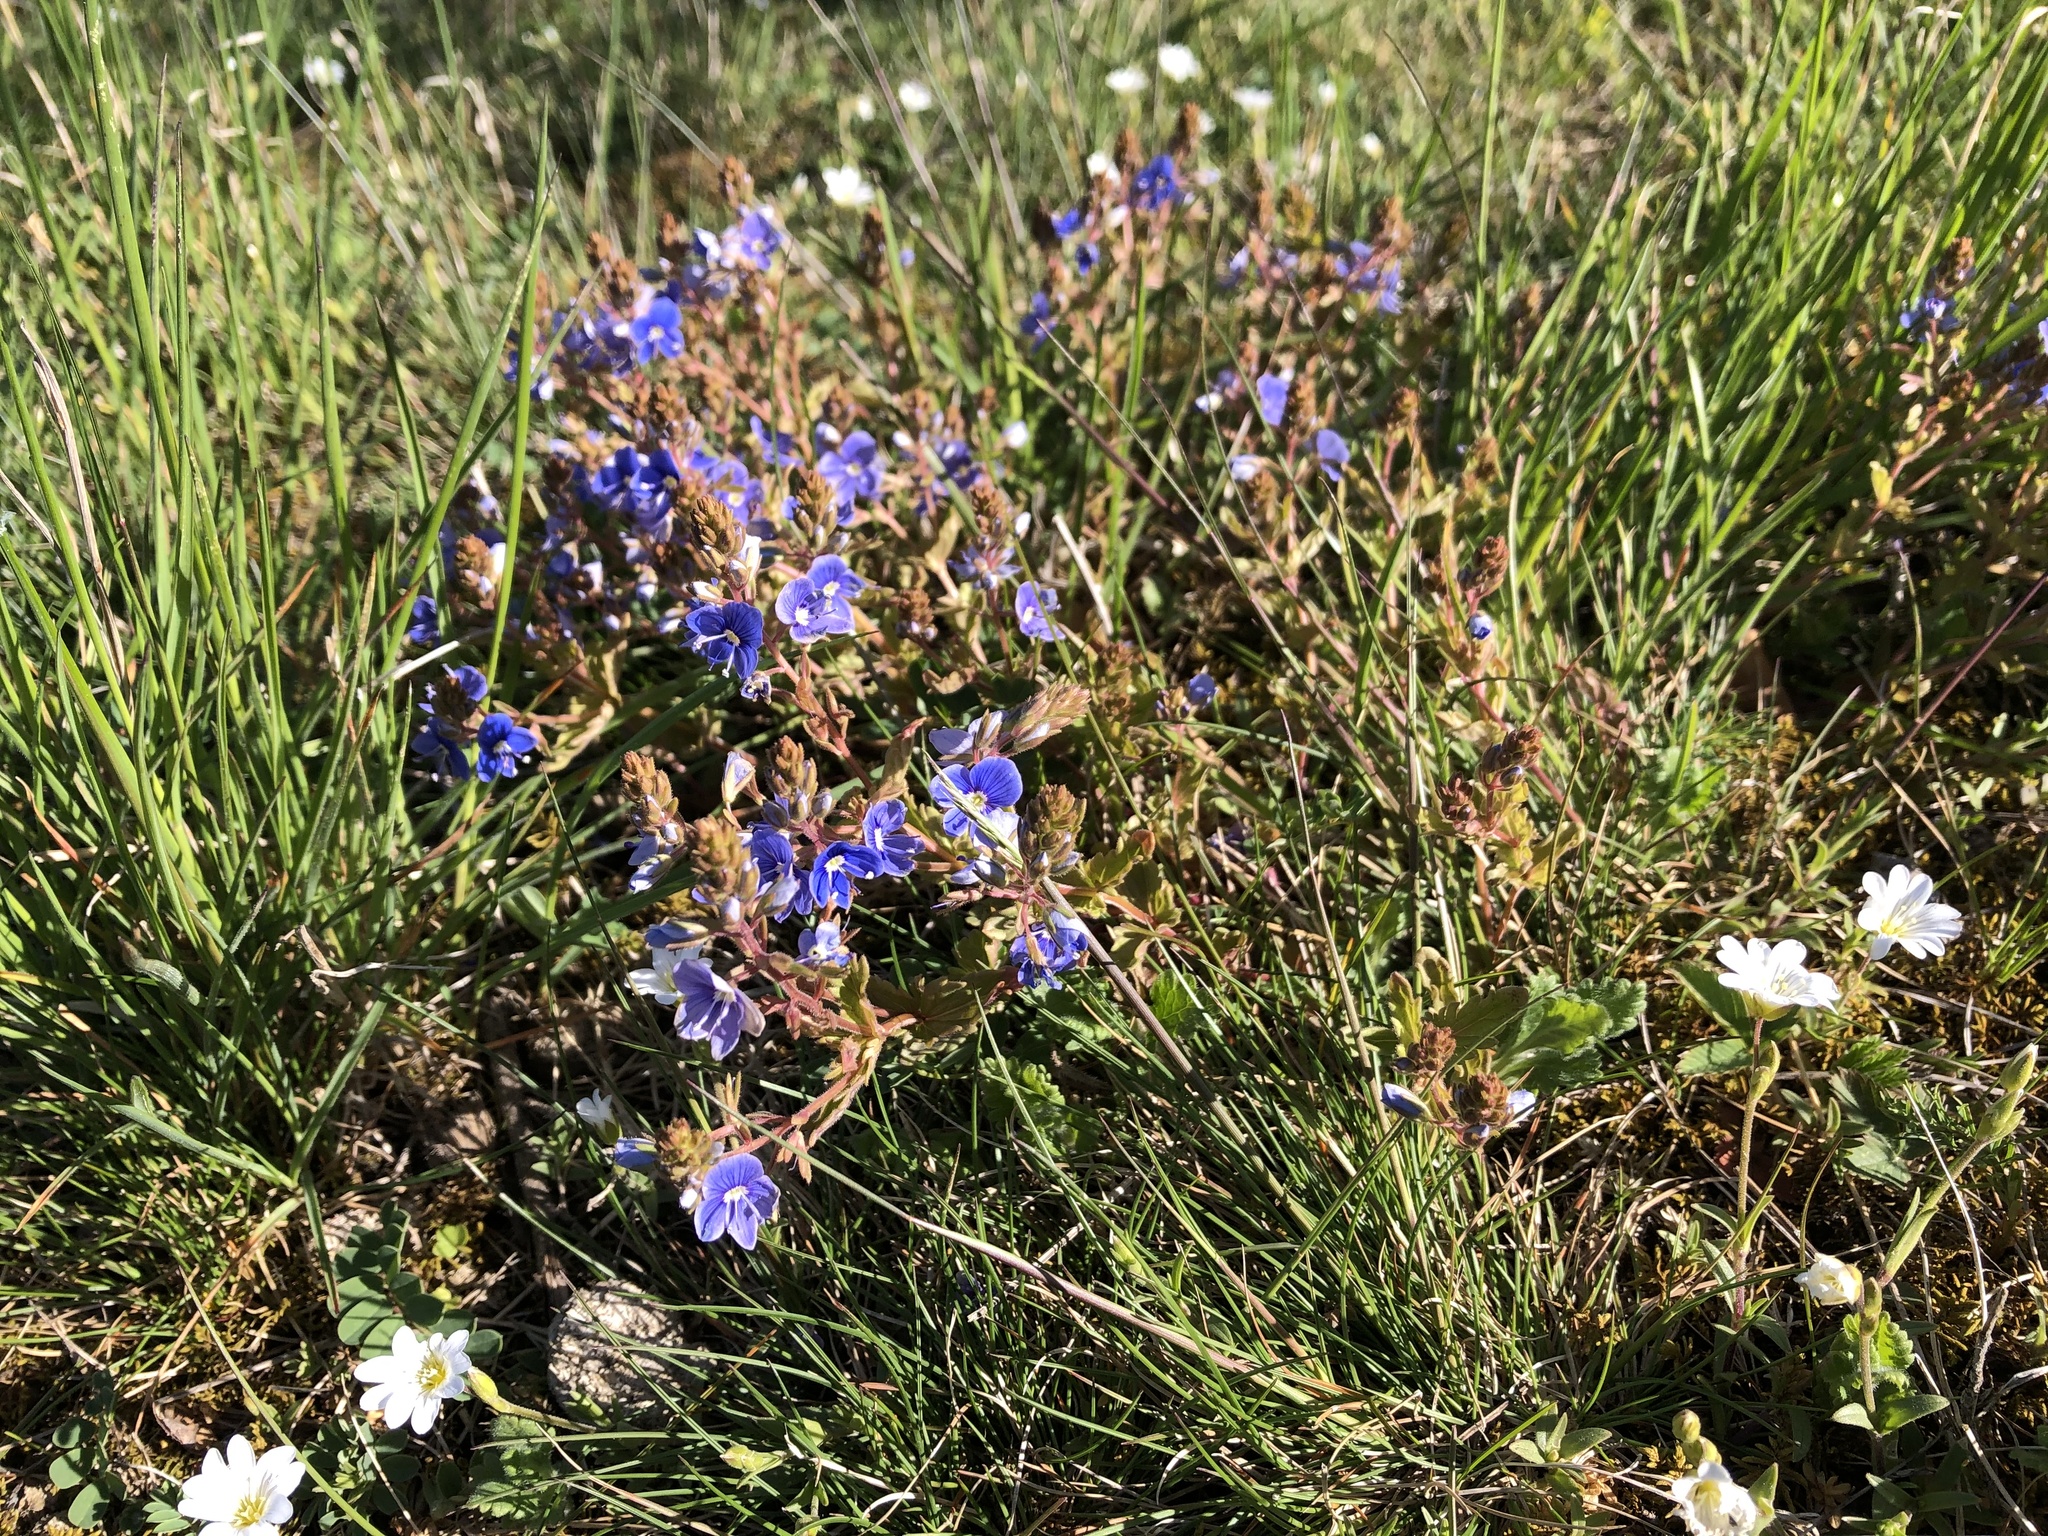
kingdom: Plantae
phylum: Tracheophyta
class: Magnoliopsida
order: Lamiales
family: Plantaginaceae
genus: Veronica
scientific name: Veronica chamaedrys
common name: Germander speedwell
